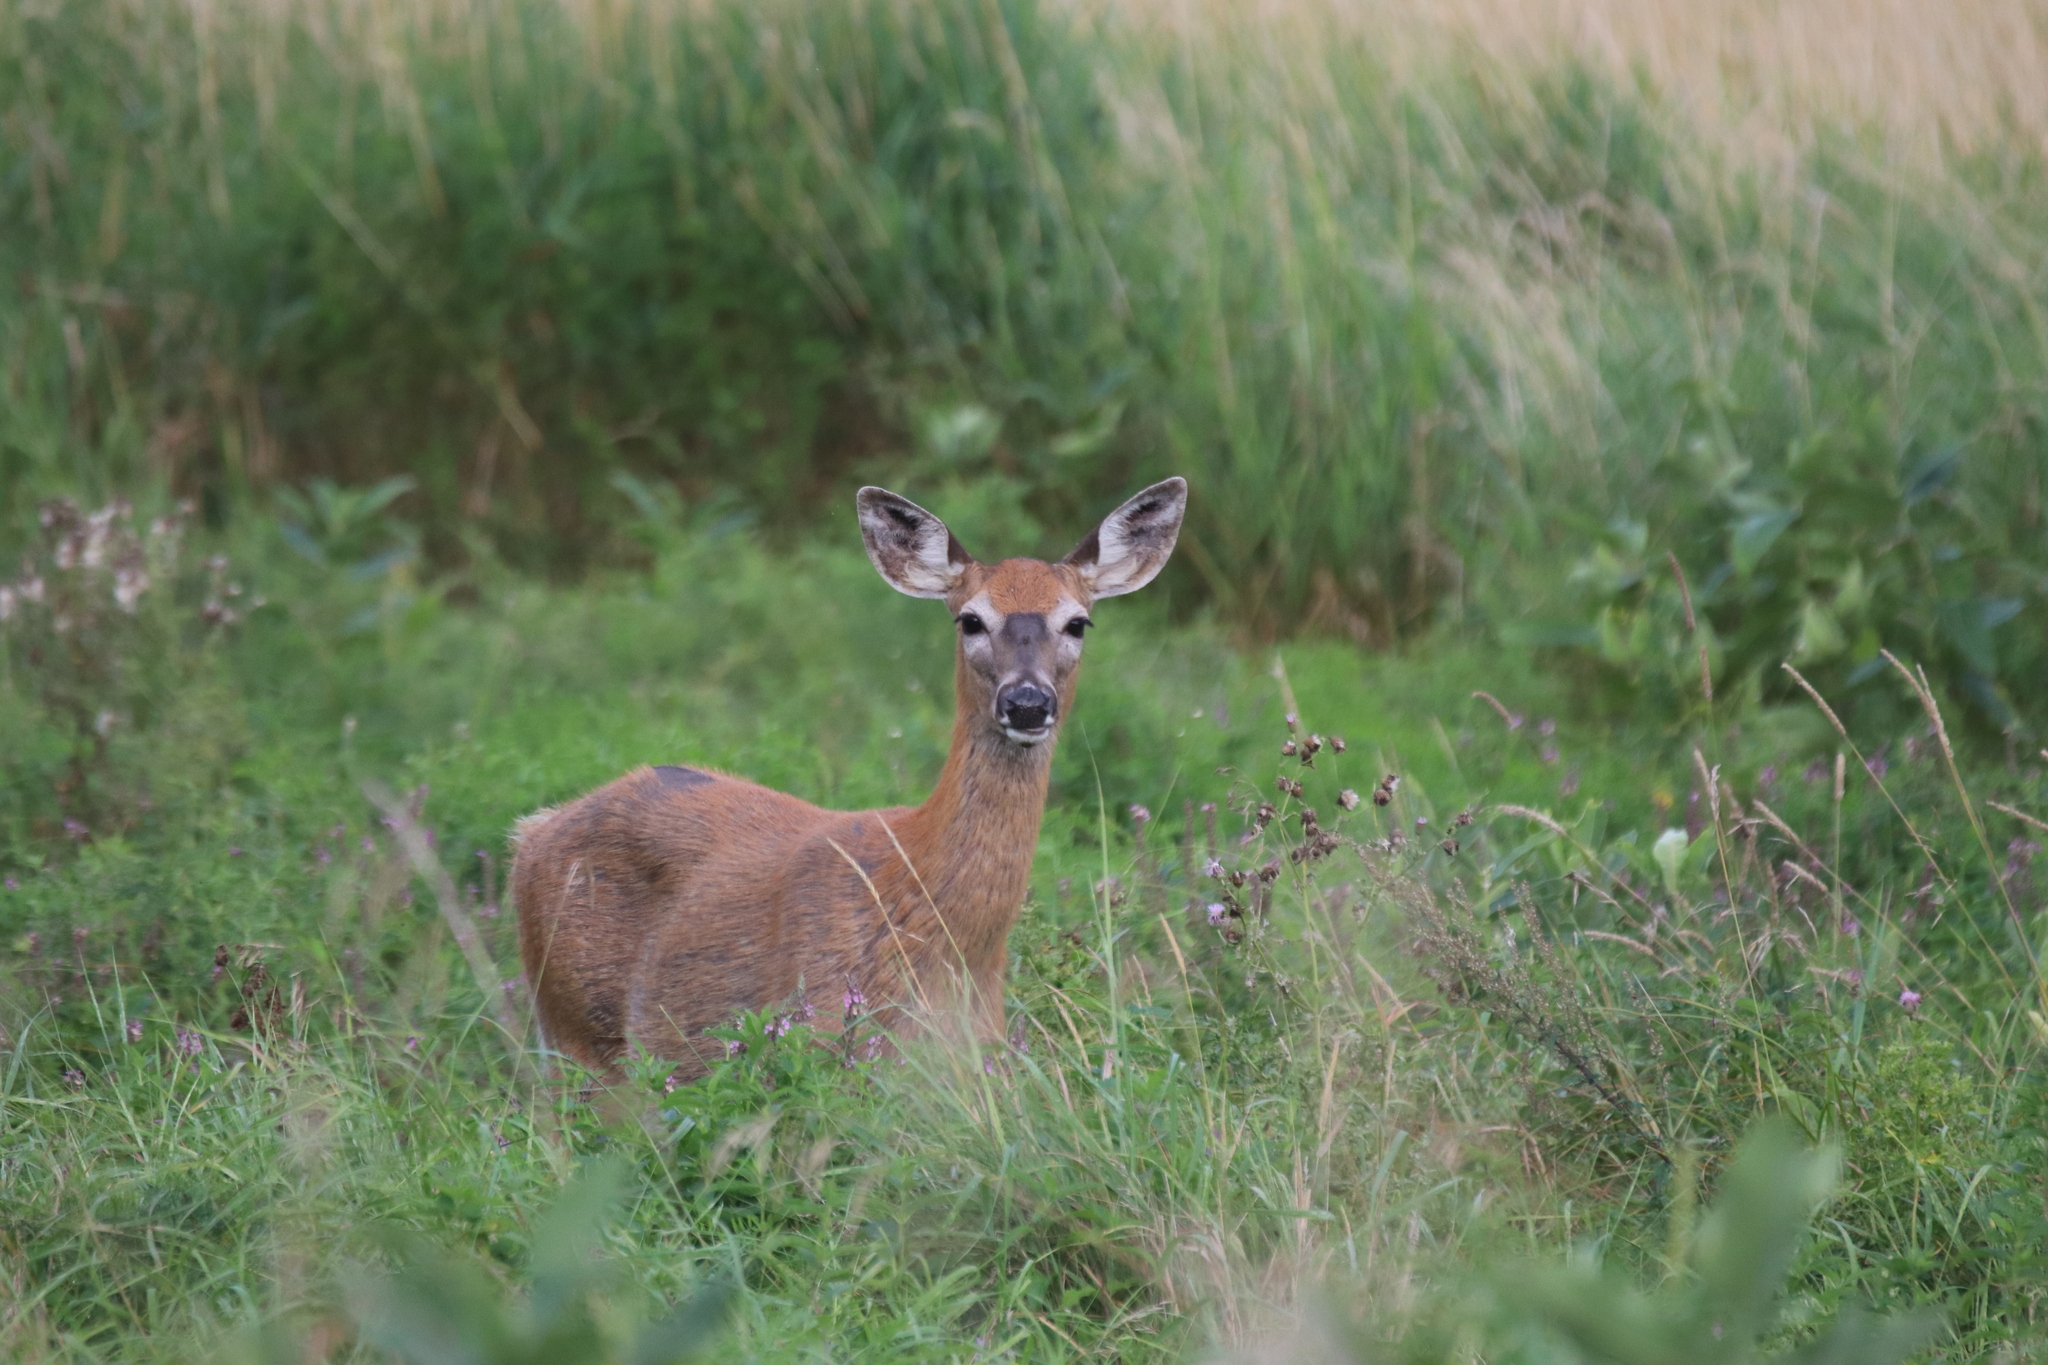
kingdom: Animalia
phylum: Chordata
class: Mammalia
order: Artiodactyla
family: Cervidae
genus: Odocoileus
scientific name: Odocoileus virginianus
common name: White-tailed deer
